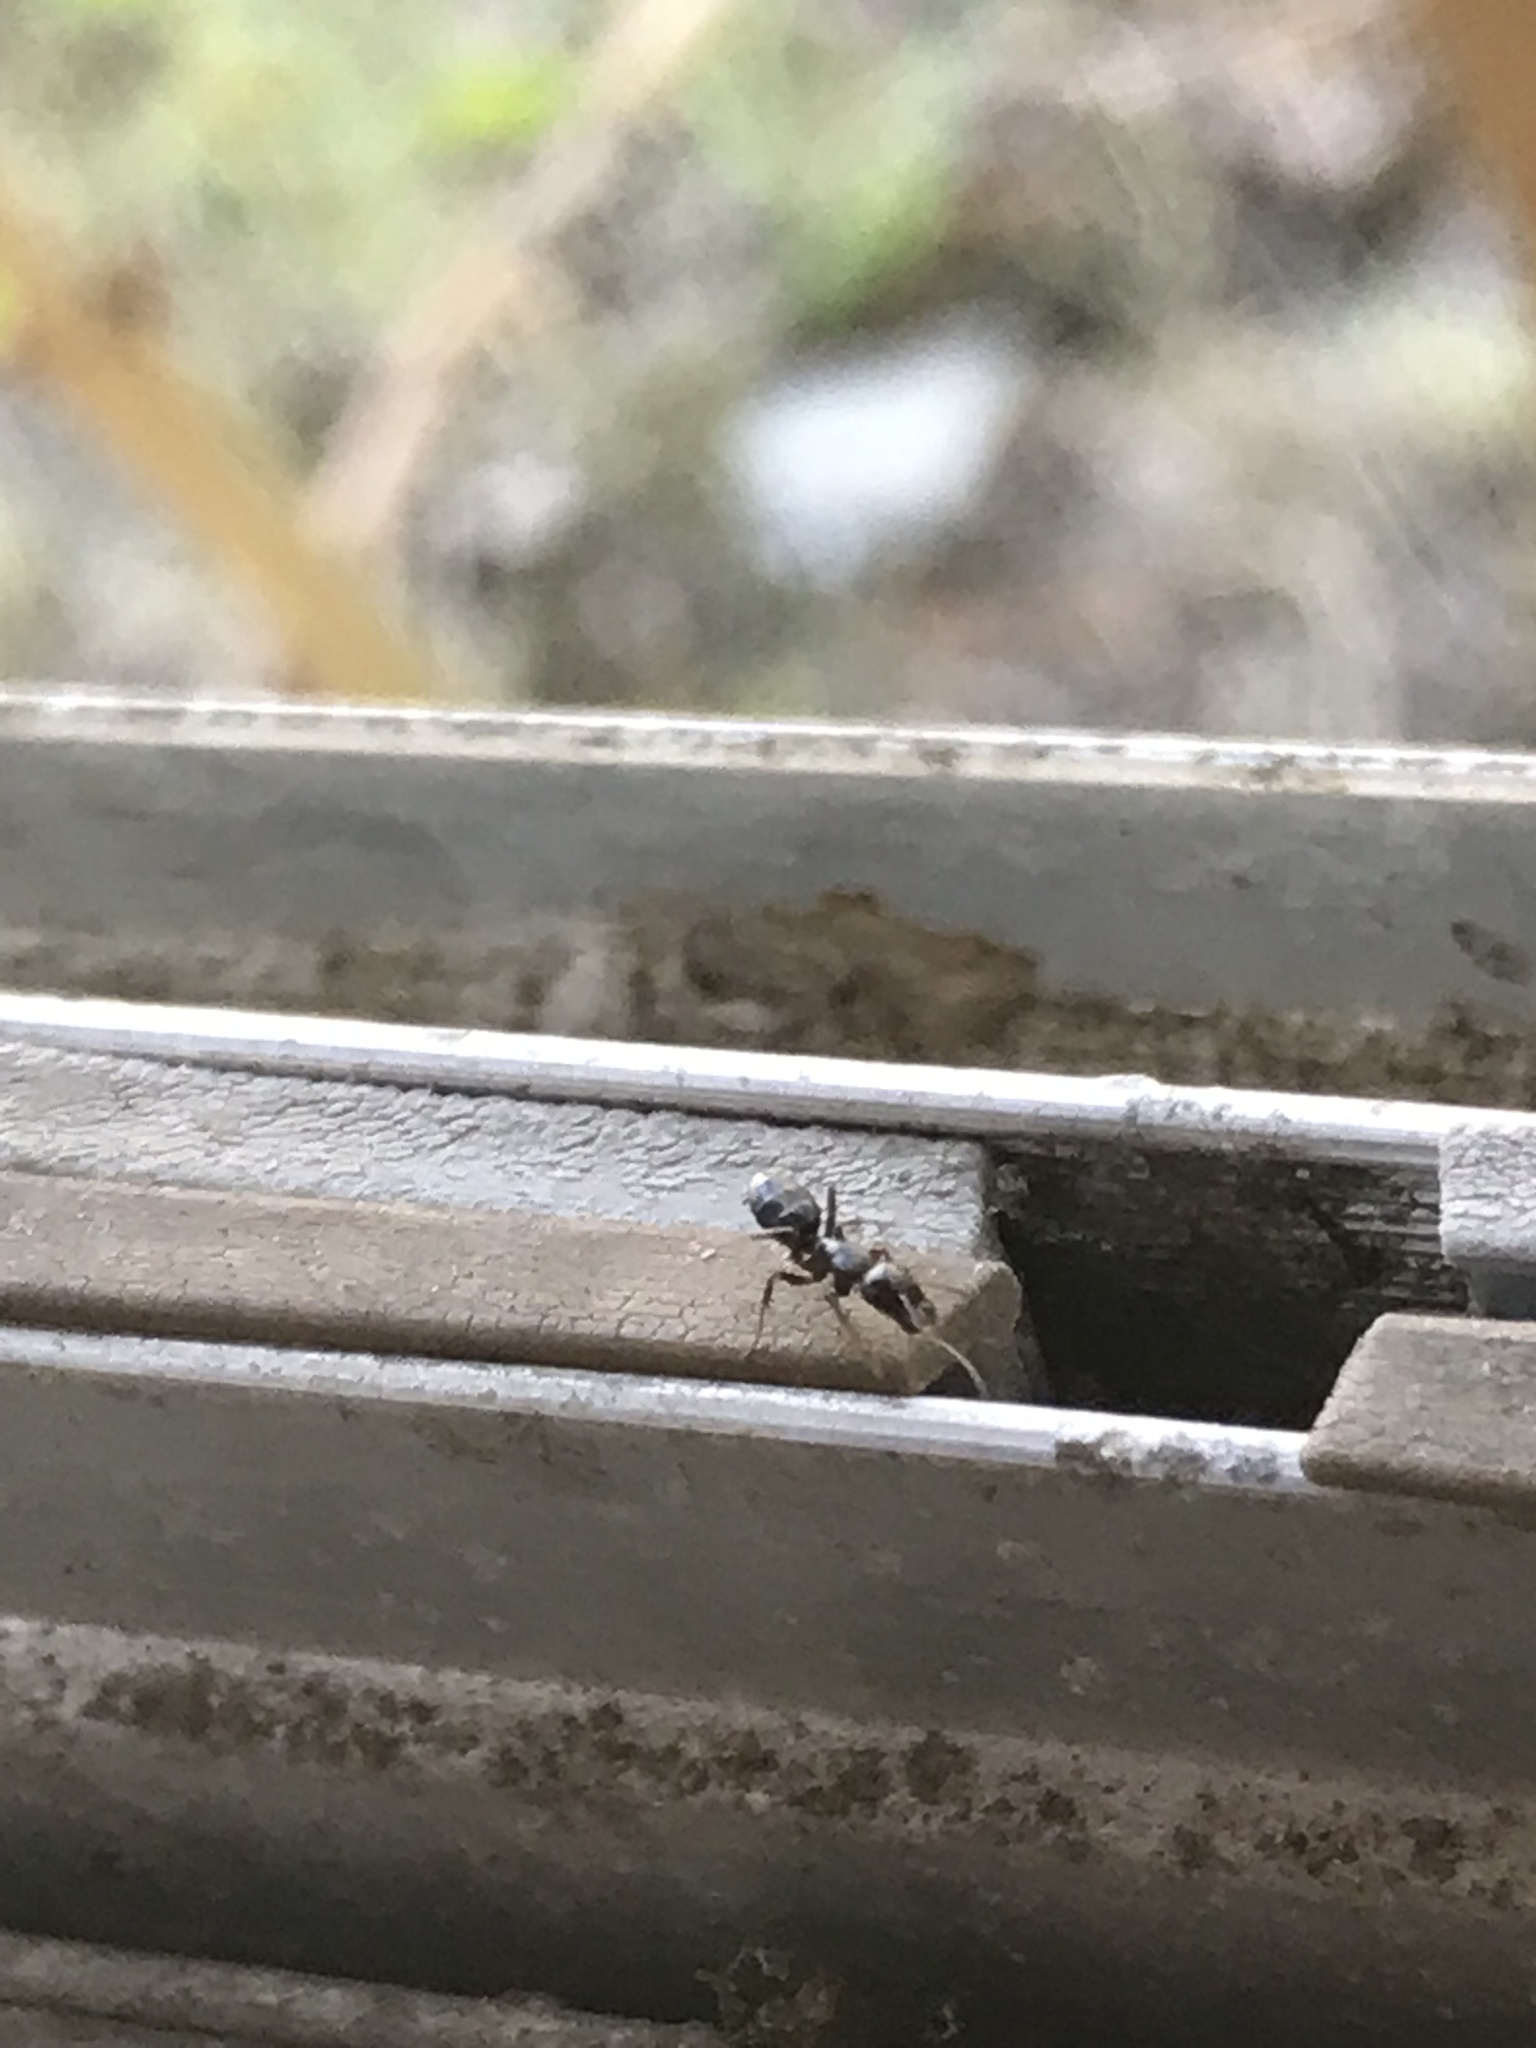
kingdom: Animalia
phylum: Arthropoda
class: Insecta
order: Hymenoptera
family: Formicidae
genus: Camponotus
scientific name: Camponotus nearcticus
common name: Smaller carpenter ant
